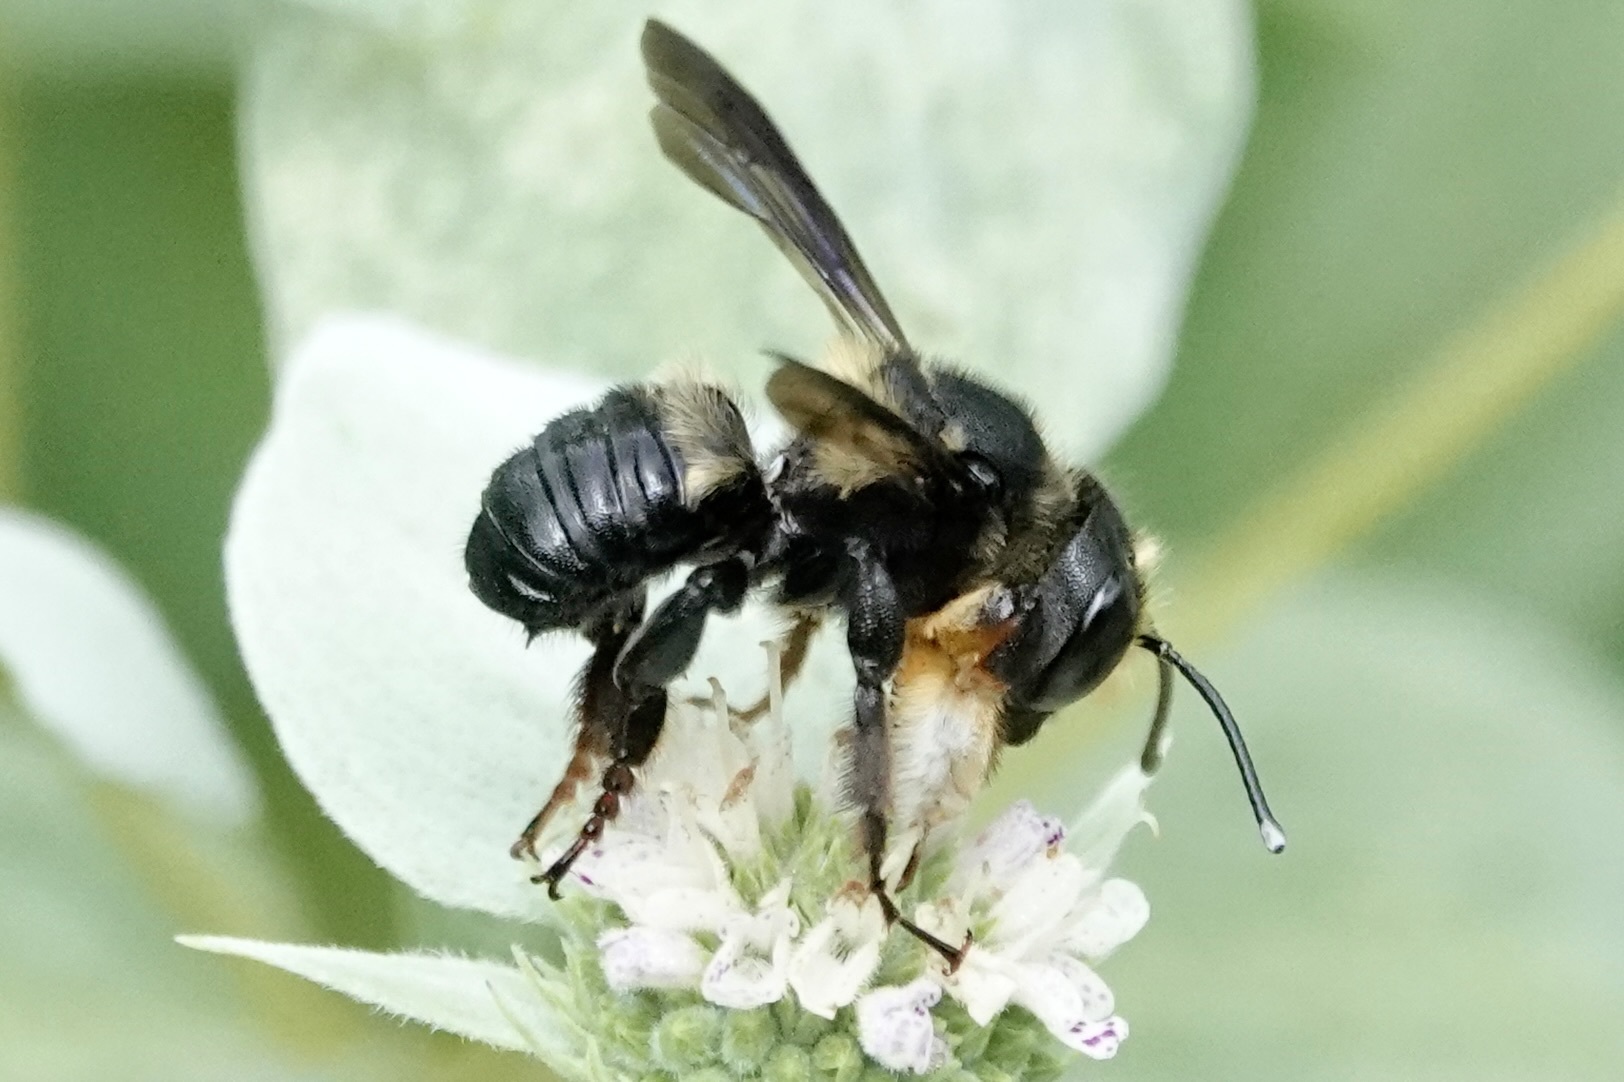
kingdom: Animalia
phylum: Arthropoda
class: Insecta
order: Hymenoptera
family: Megachilidae
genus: Megachile
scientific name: Megachile xylocopoides
